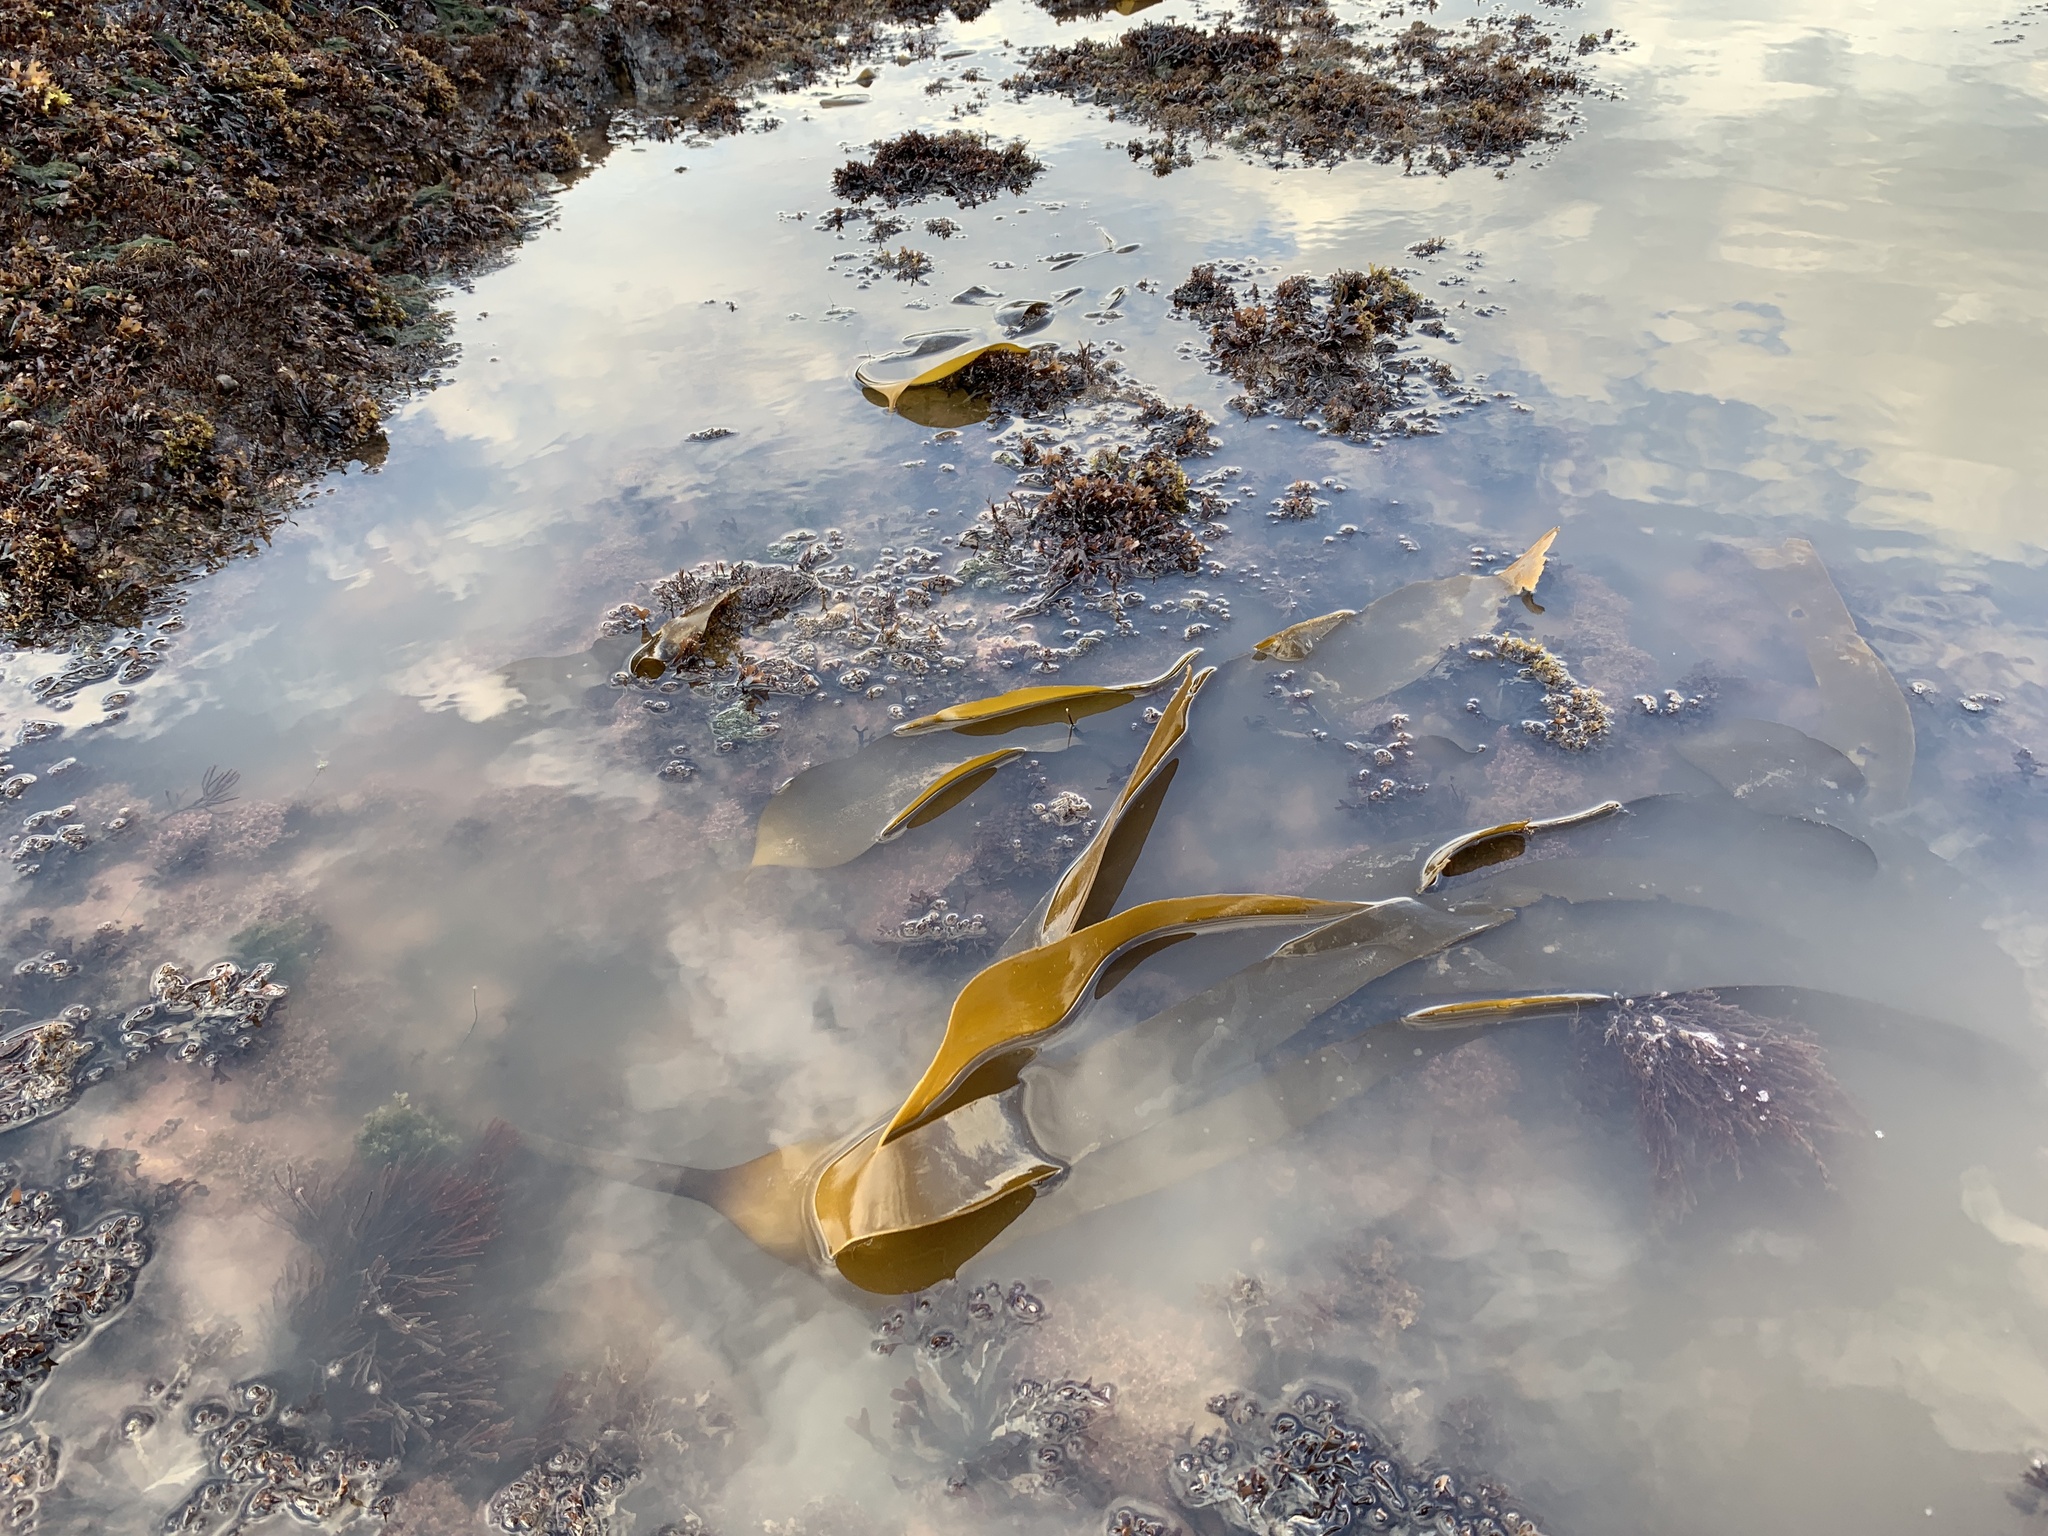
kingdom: Chromista
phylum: Ochrophyta
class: Phaeophyceae
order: Laminariales
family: Laminariaceae
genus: Laminaria
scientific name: Laminaria digitata
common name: Oarweed
